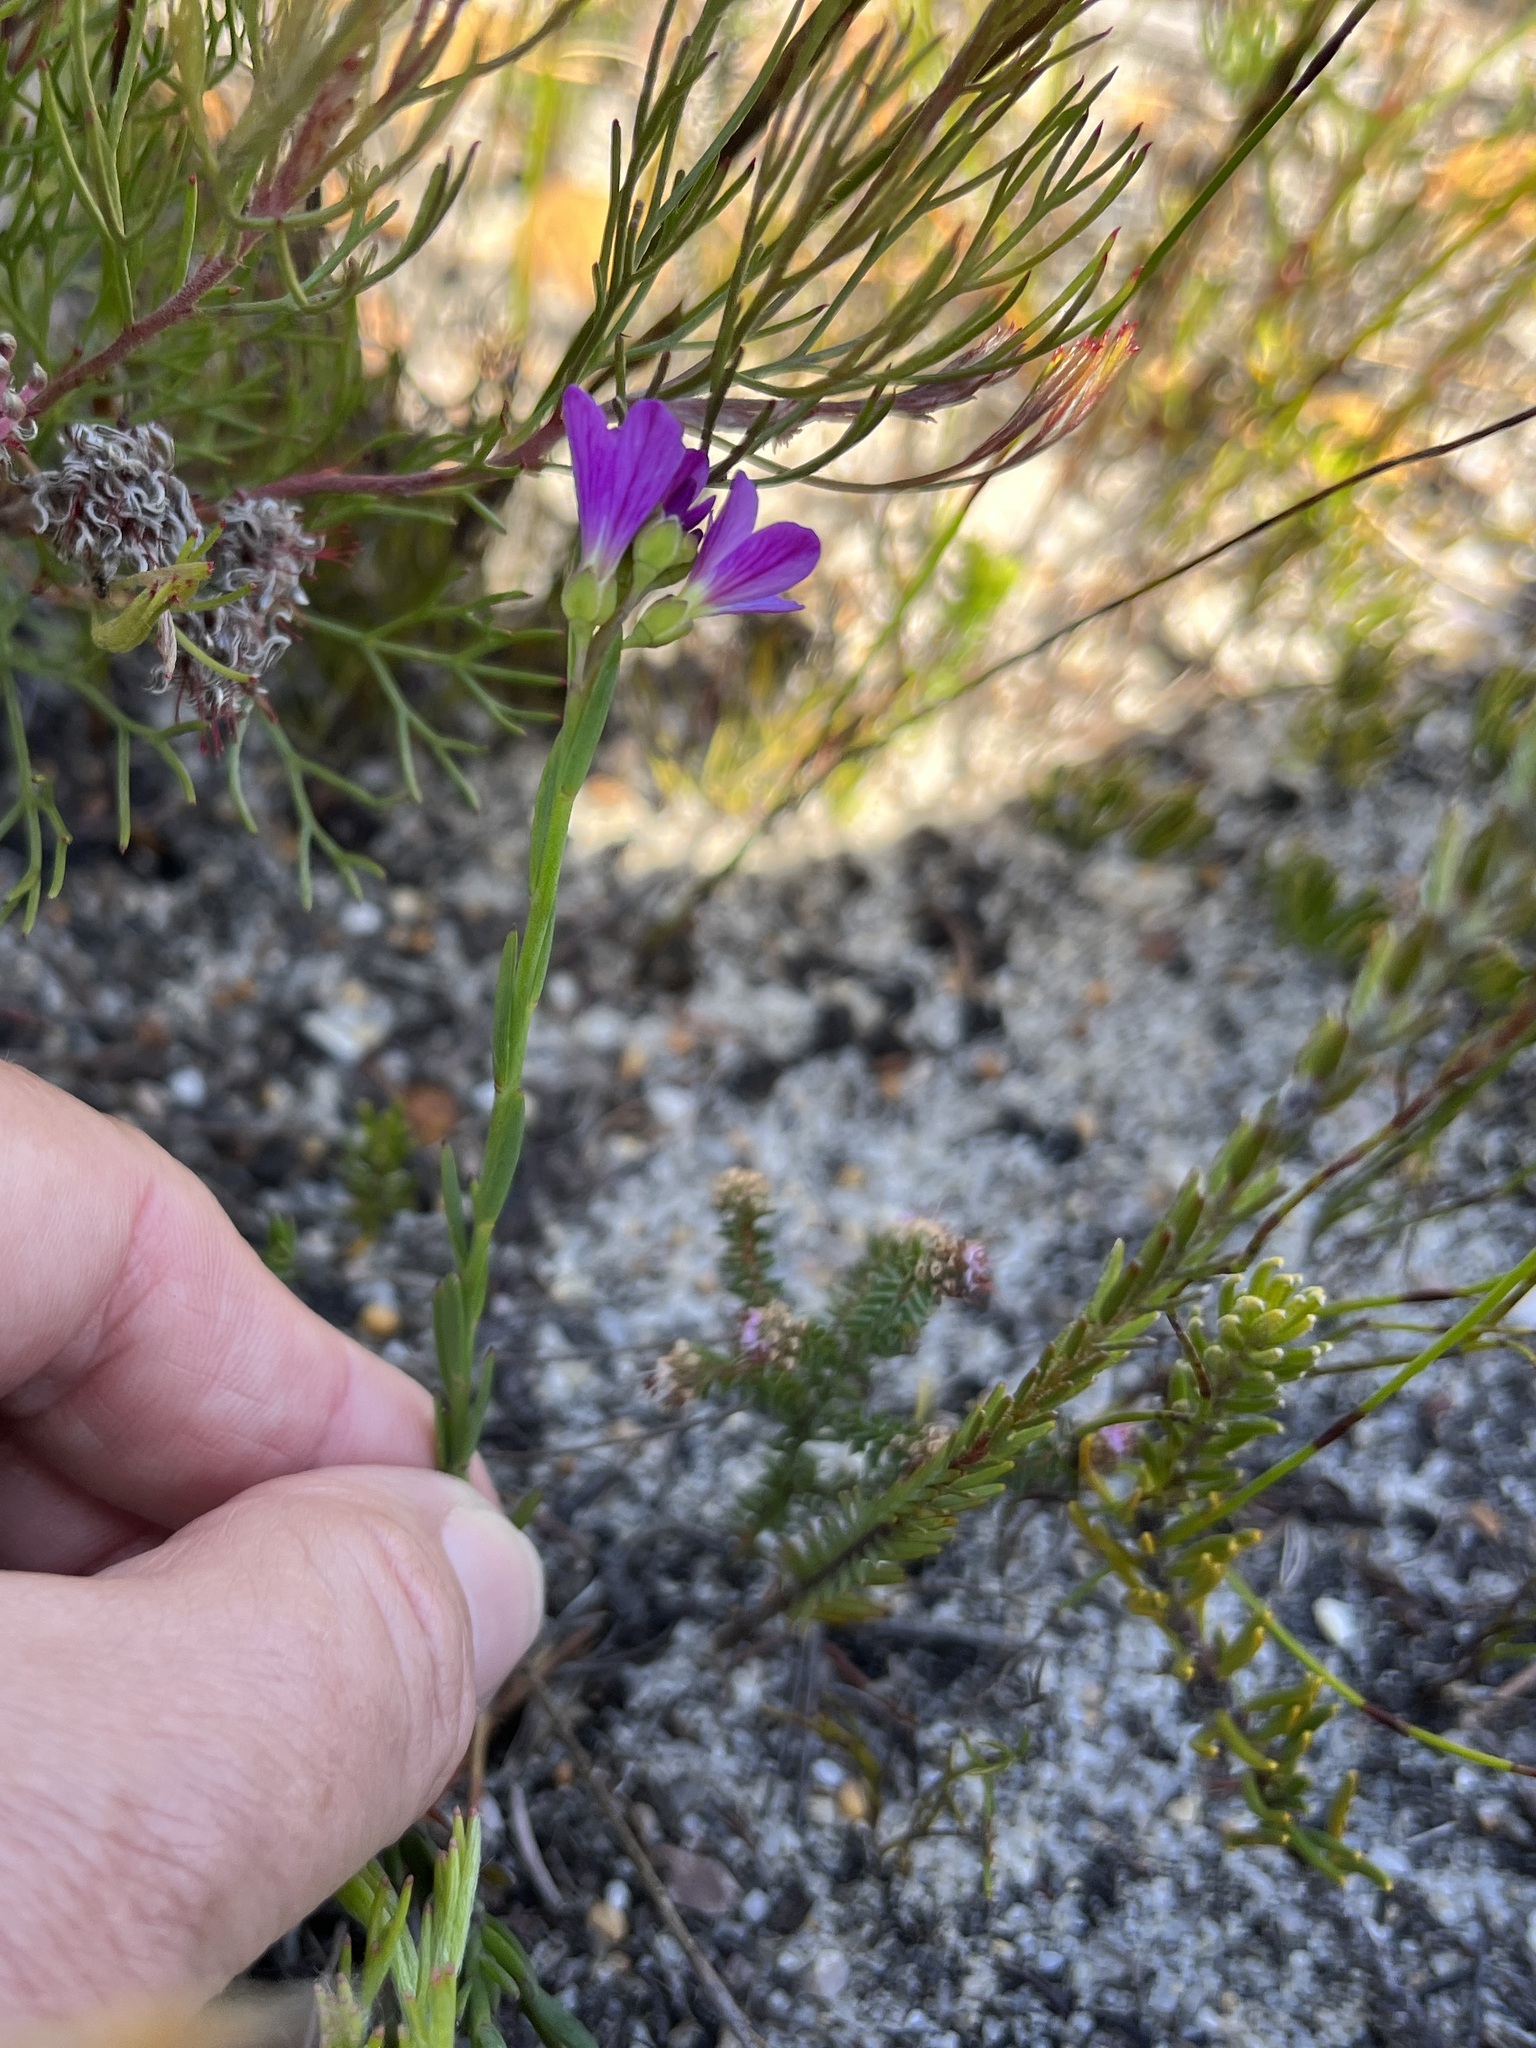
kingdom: Plantae
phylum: Tracheophyta
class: Magnoliopsida
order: Brassicales
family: Brassicaceae
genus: Heliophila
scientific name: Heliophila juncea
